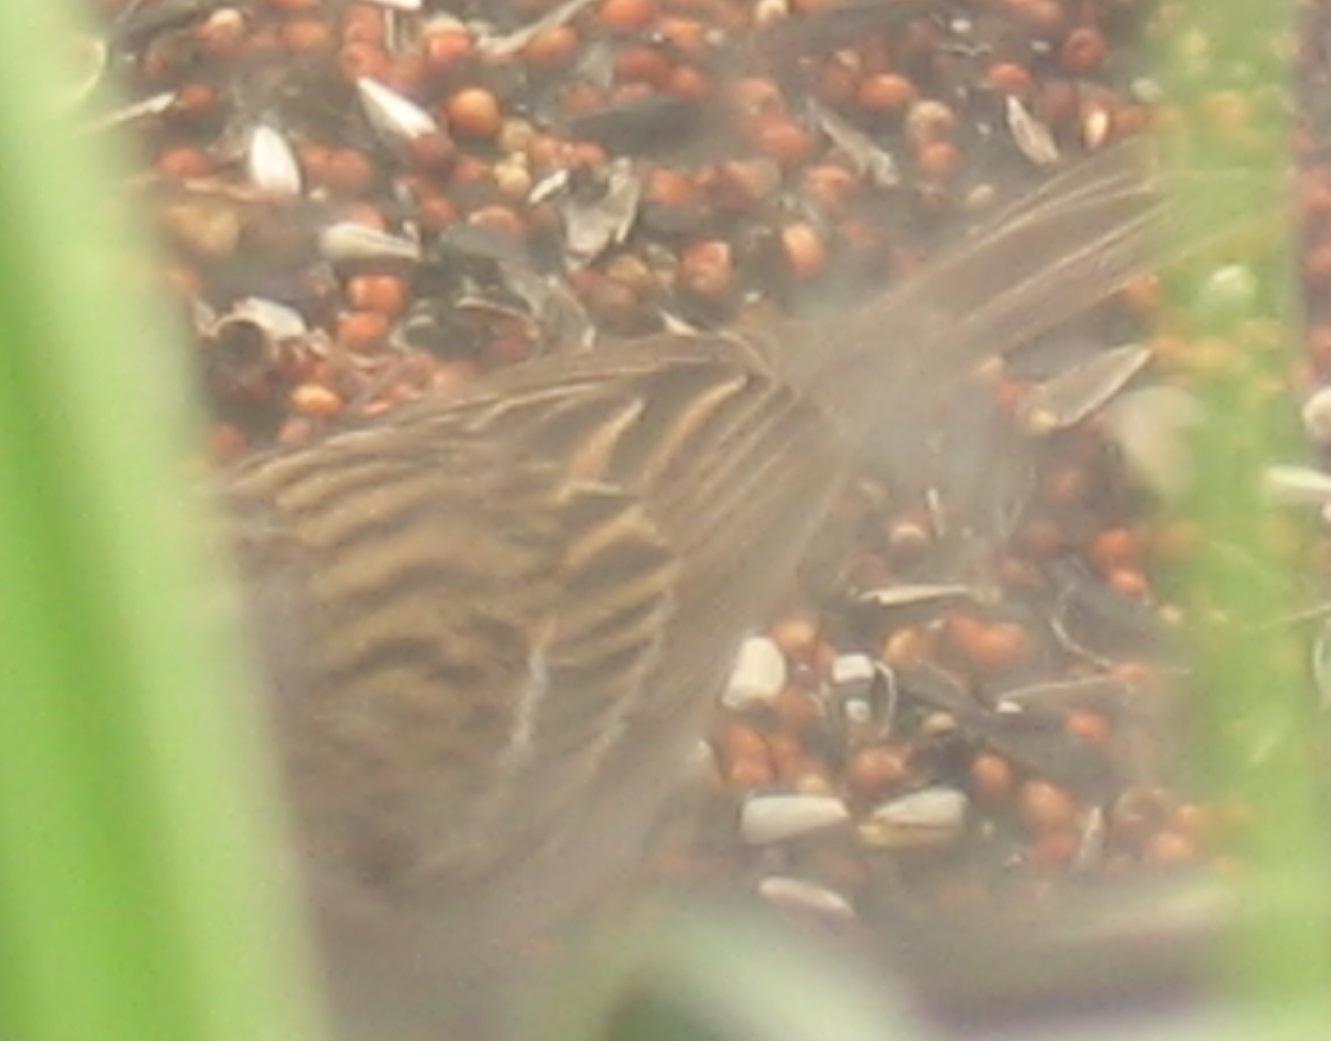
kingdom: Animalia
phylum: Chordata
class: Aves
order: Passeriformes
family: Passerellidae
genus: Spizella
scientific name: Spizella passerina
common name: Chipping sparrow
